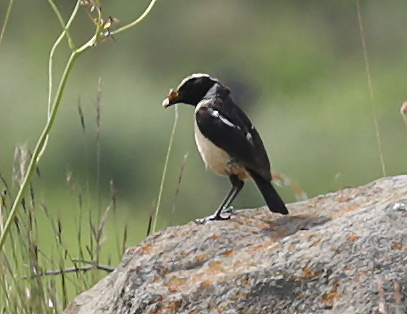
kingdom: Animalia
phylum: Chordata
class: Aves
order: Passeriformes
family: Muscicapidae
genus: Campicoloides
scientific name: Campicoloides bifasciatus
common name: Buff-streaked chat
